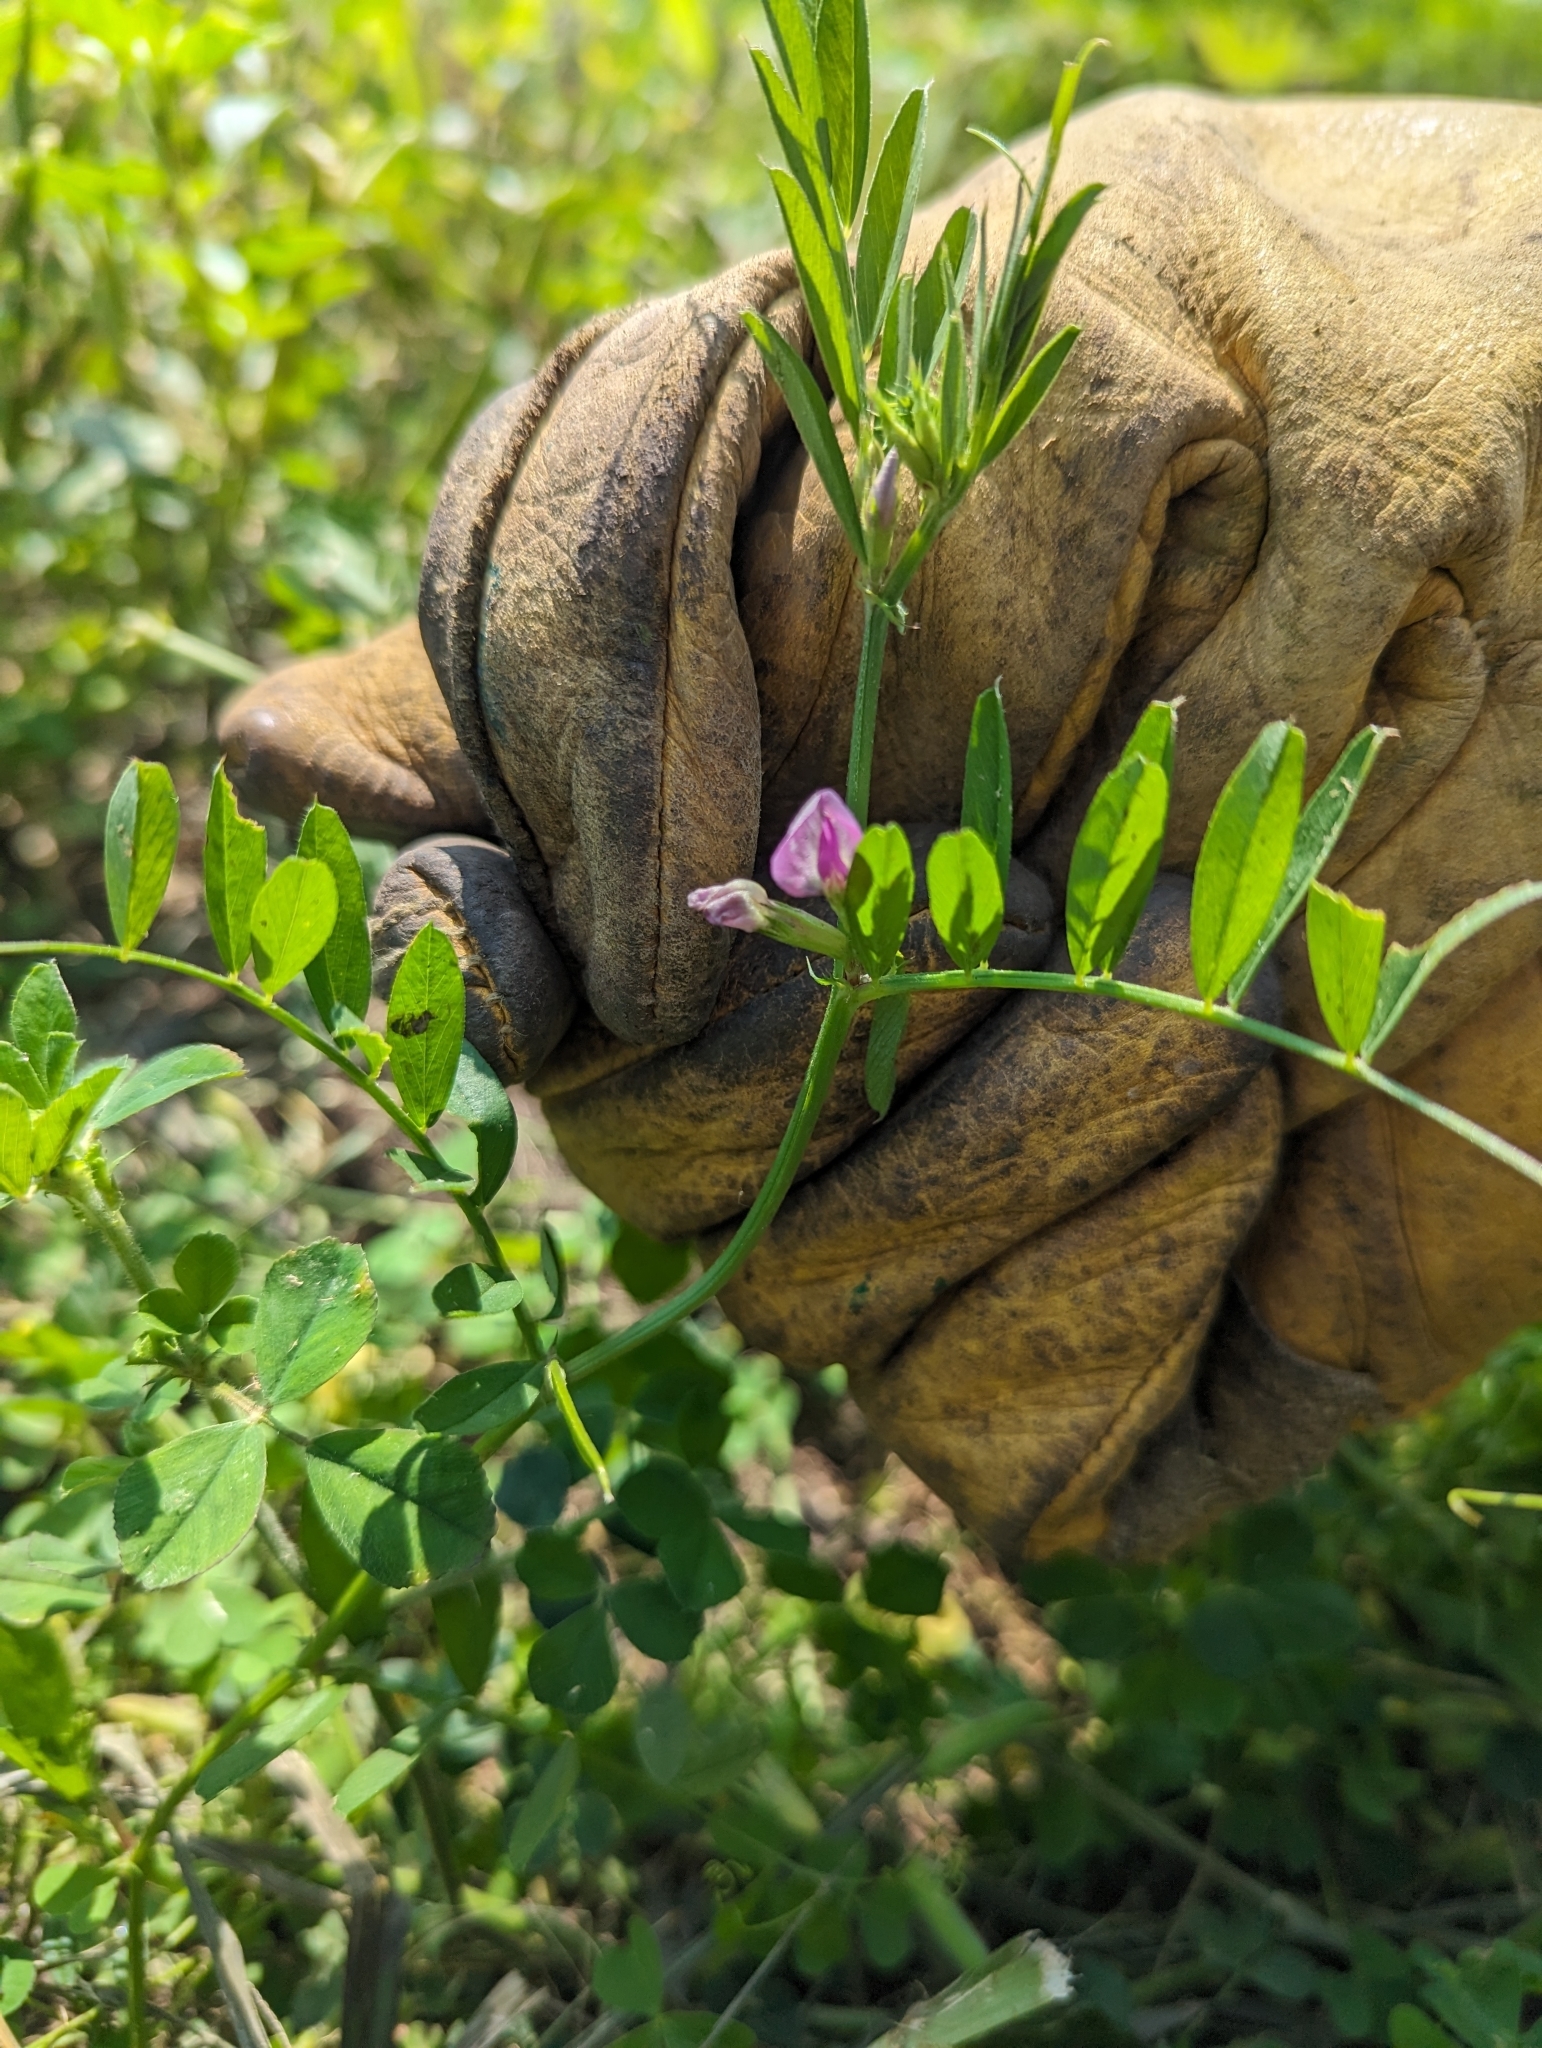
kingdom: Plantae
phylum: Tracheophyta
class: Magnoliopsida
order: Fabales
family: Fabaceae
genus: Vicia
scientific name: Vicia sativa
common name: Garden vetch
